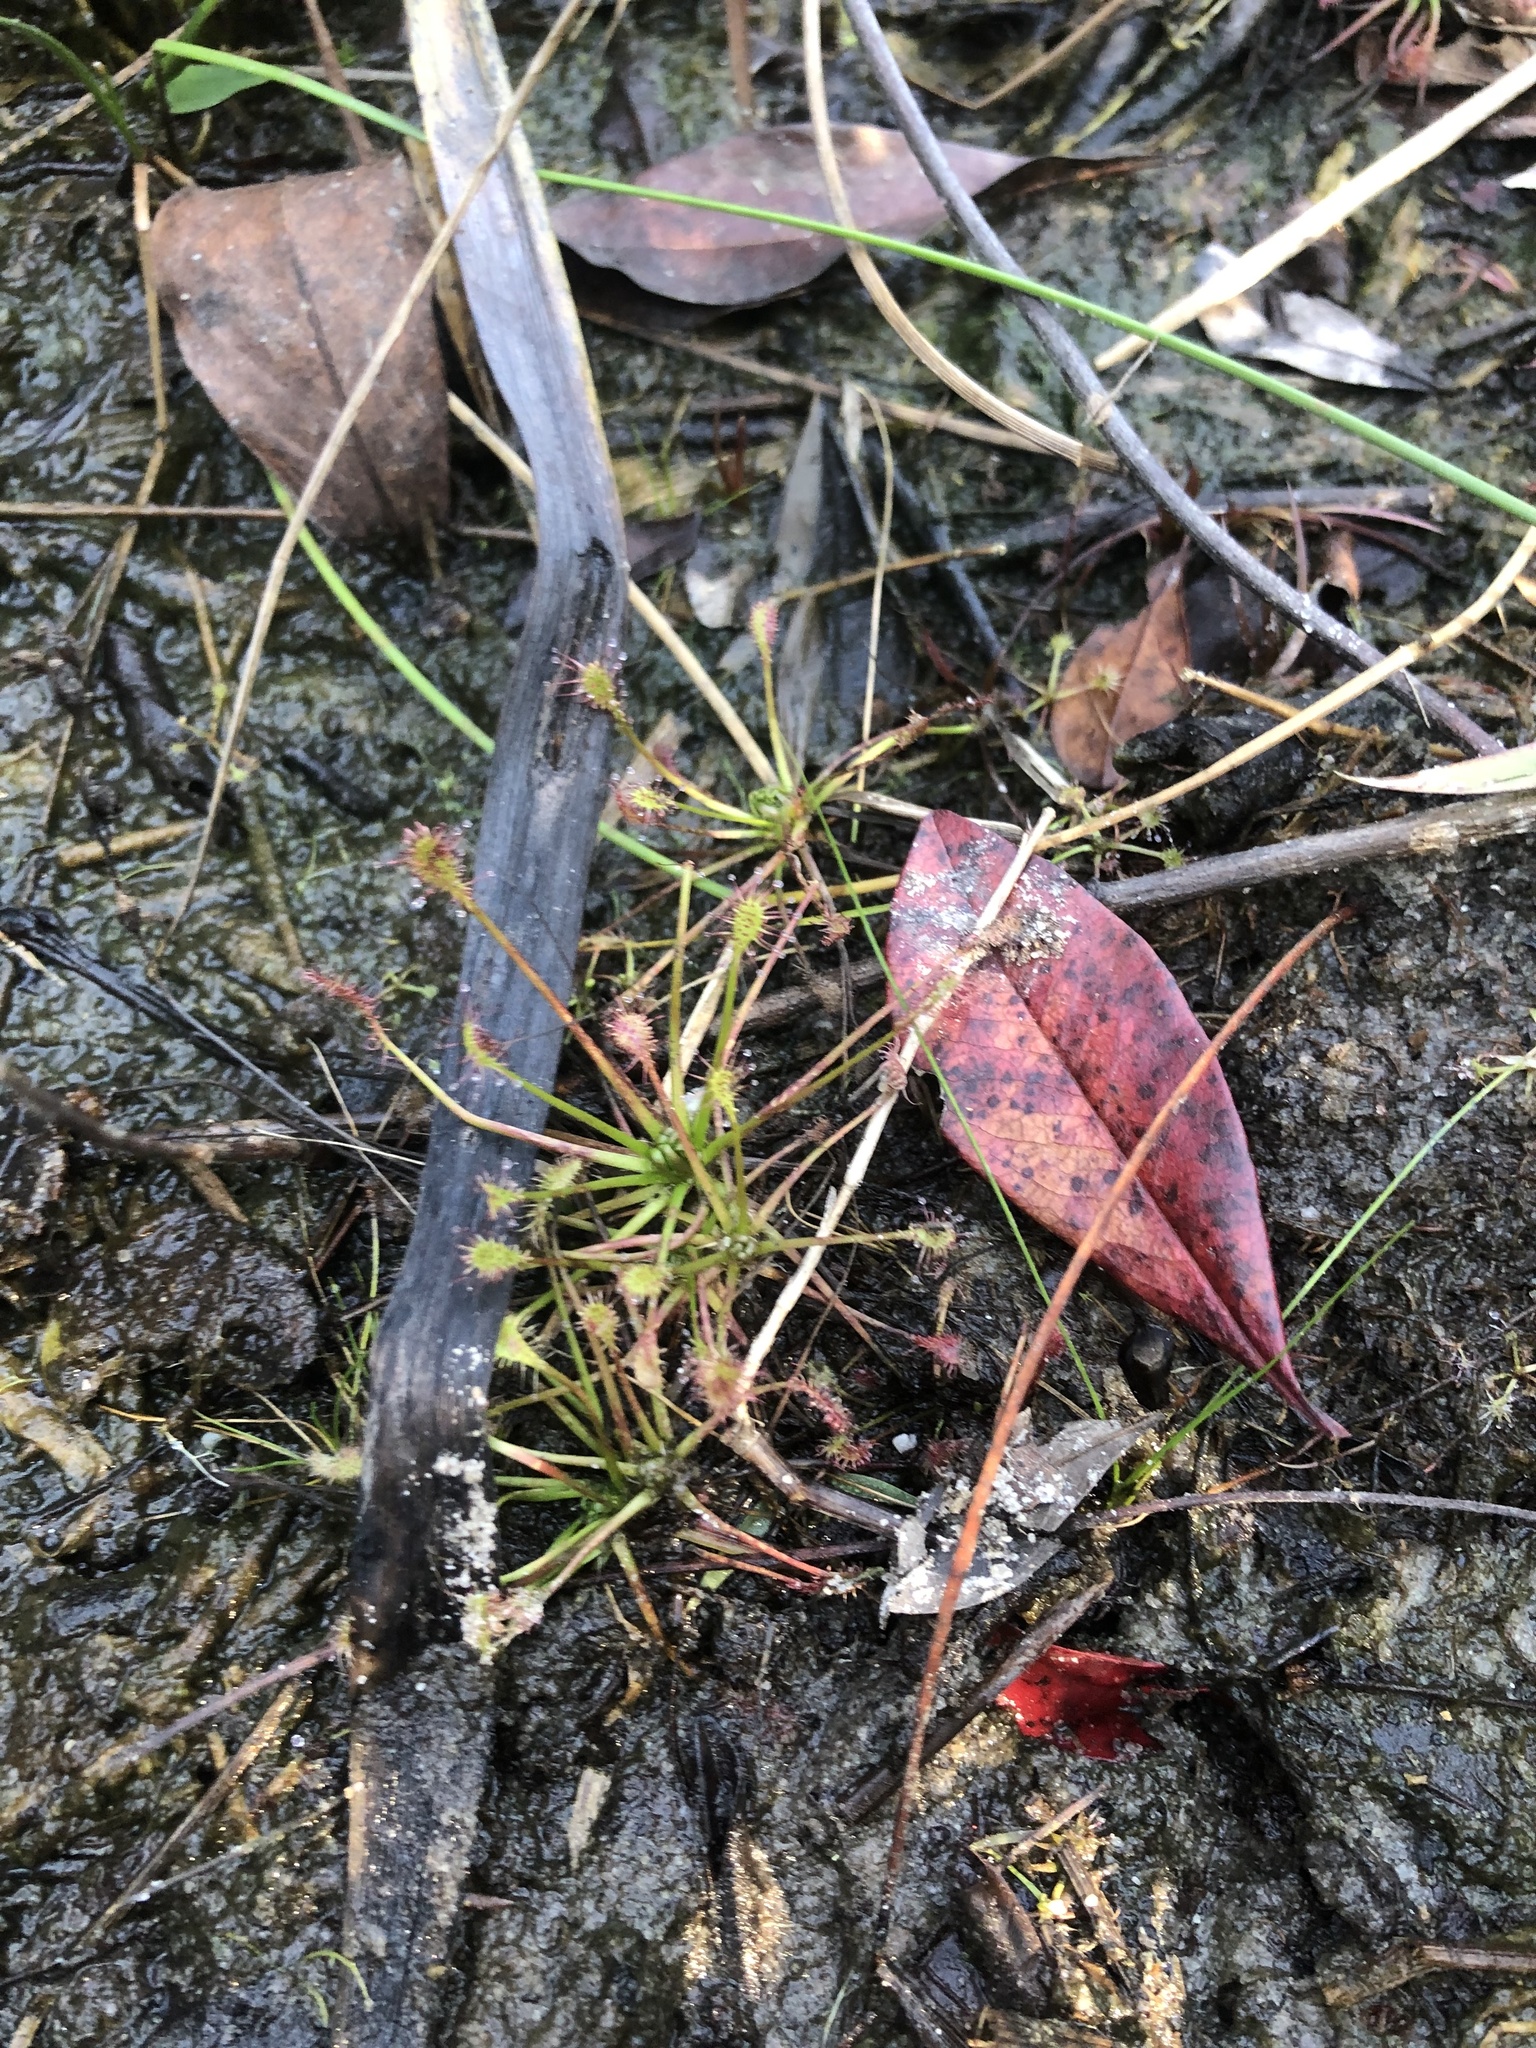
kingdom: Plantae
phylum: Tracheophyta
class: Magnoliopsida
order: Caryophyllales
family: Droseraceae
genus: Drosera
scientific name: Drosera intermedia
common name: Oblong-leaved sundew
